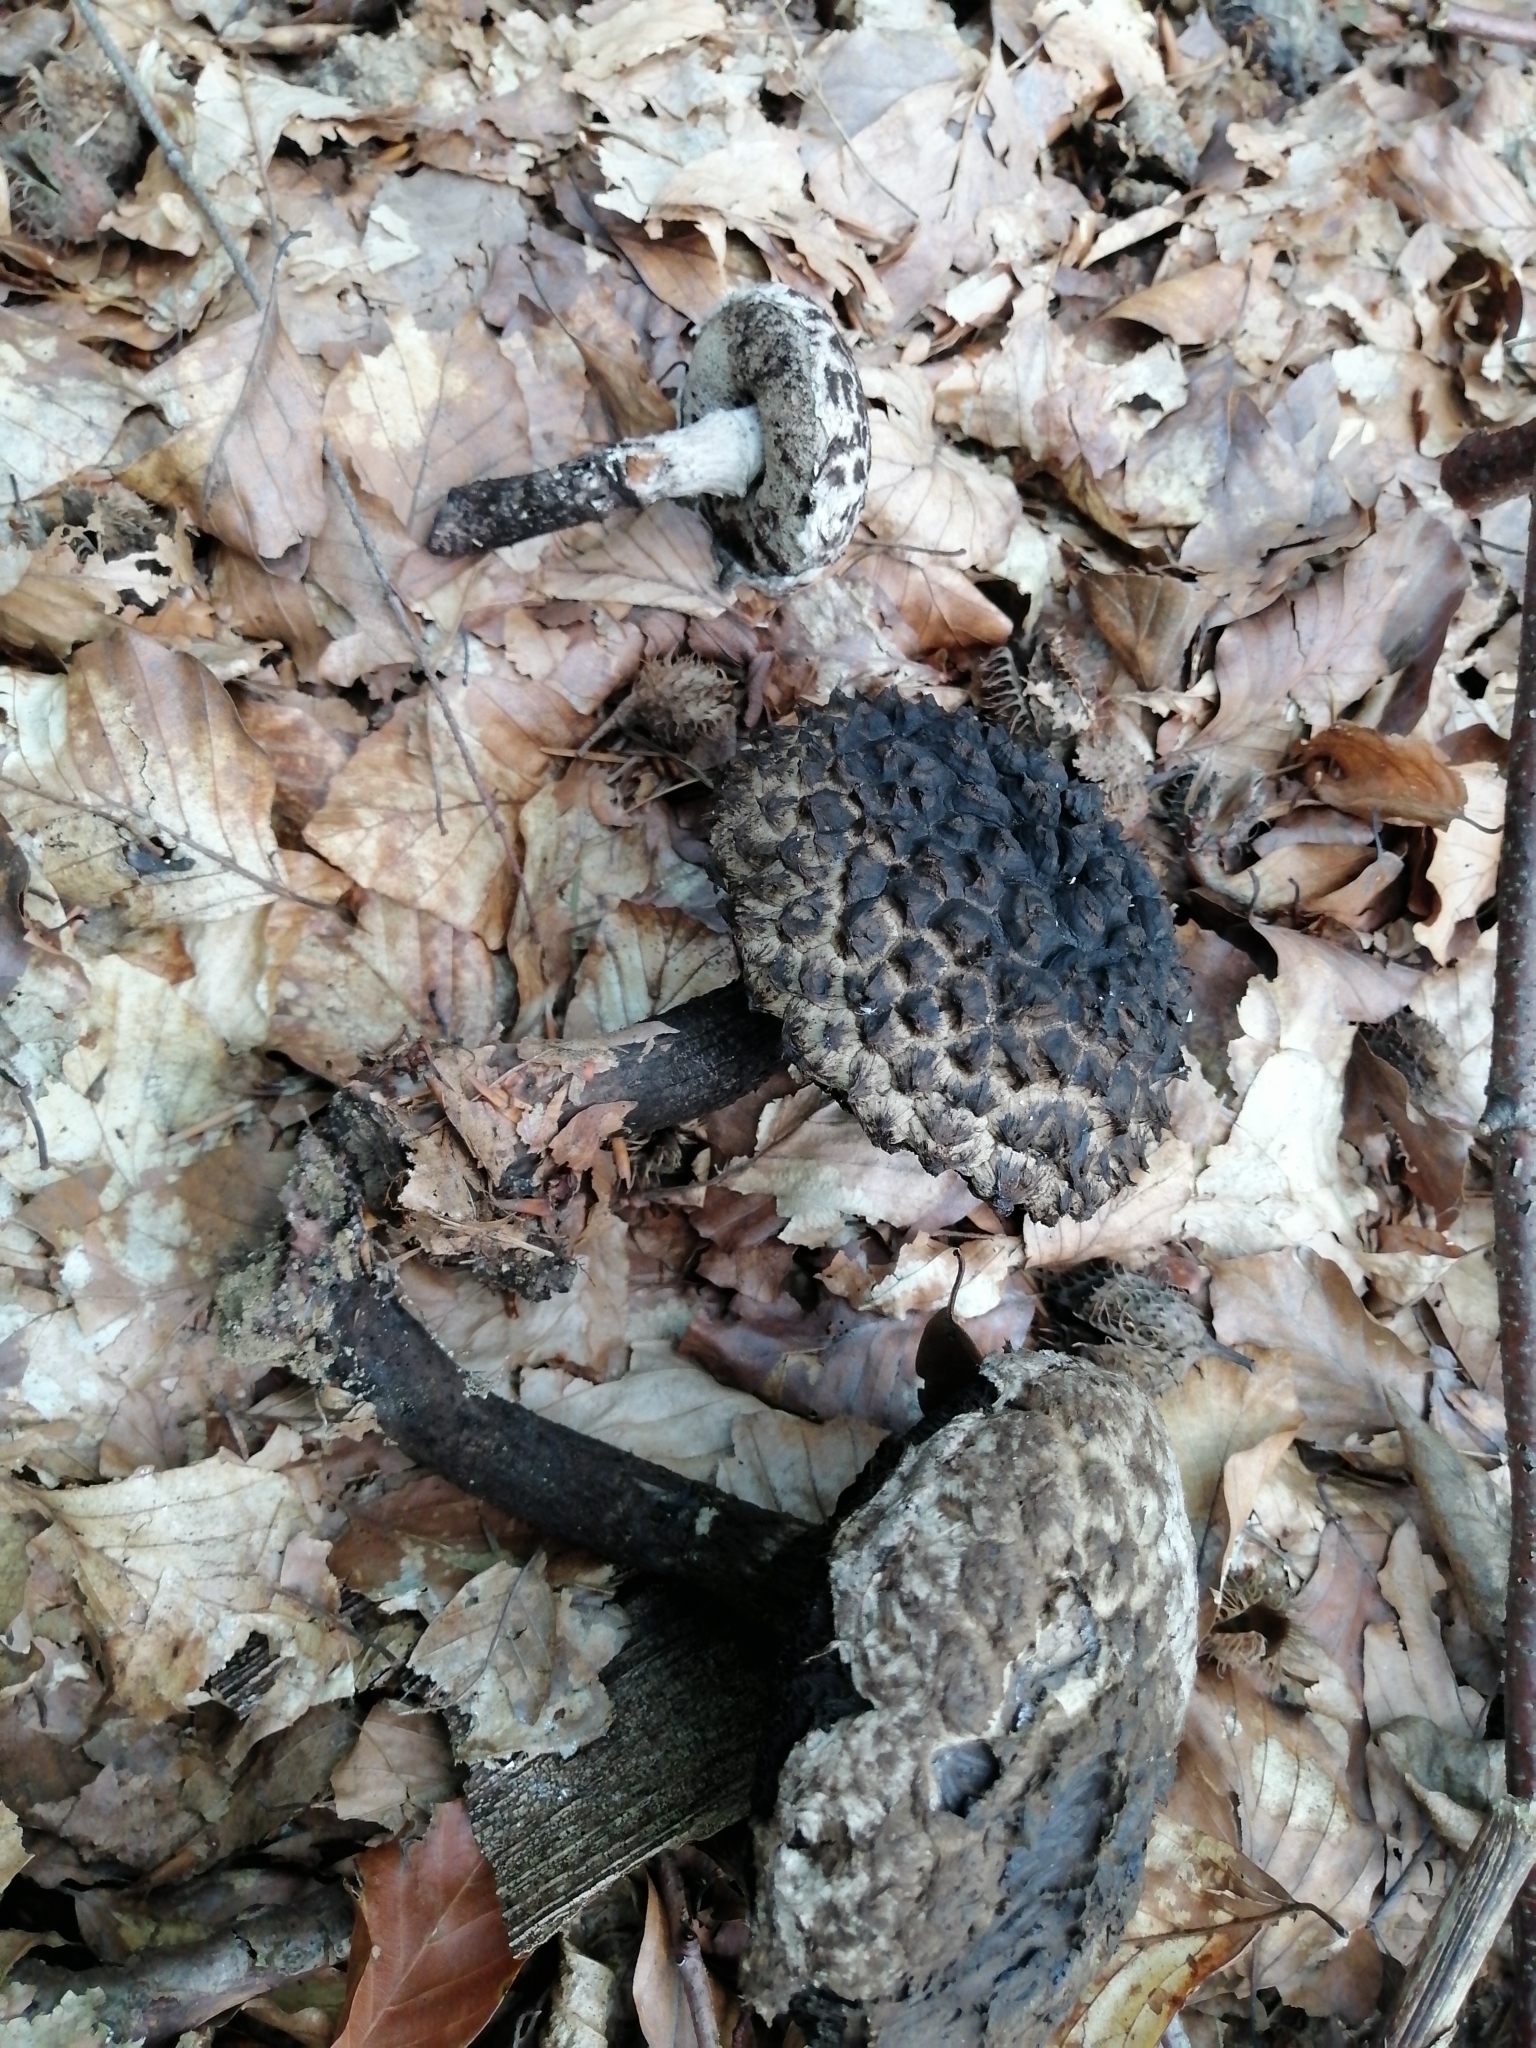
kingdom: Fungi
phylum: Basidiomycota
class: Agaricomycetes
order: Boletales
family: Boletaceae
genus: Strobilomyces
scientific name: Strobilomyces strobilaceus
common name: Old man of the woods
